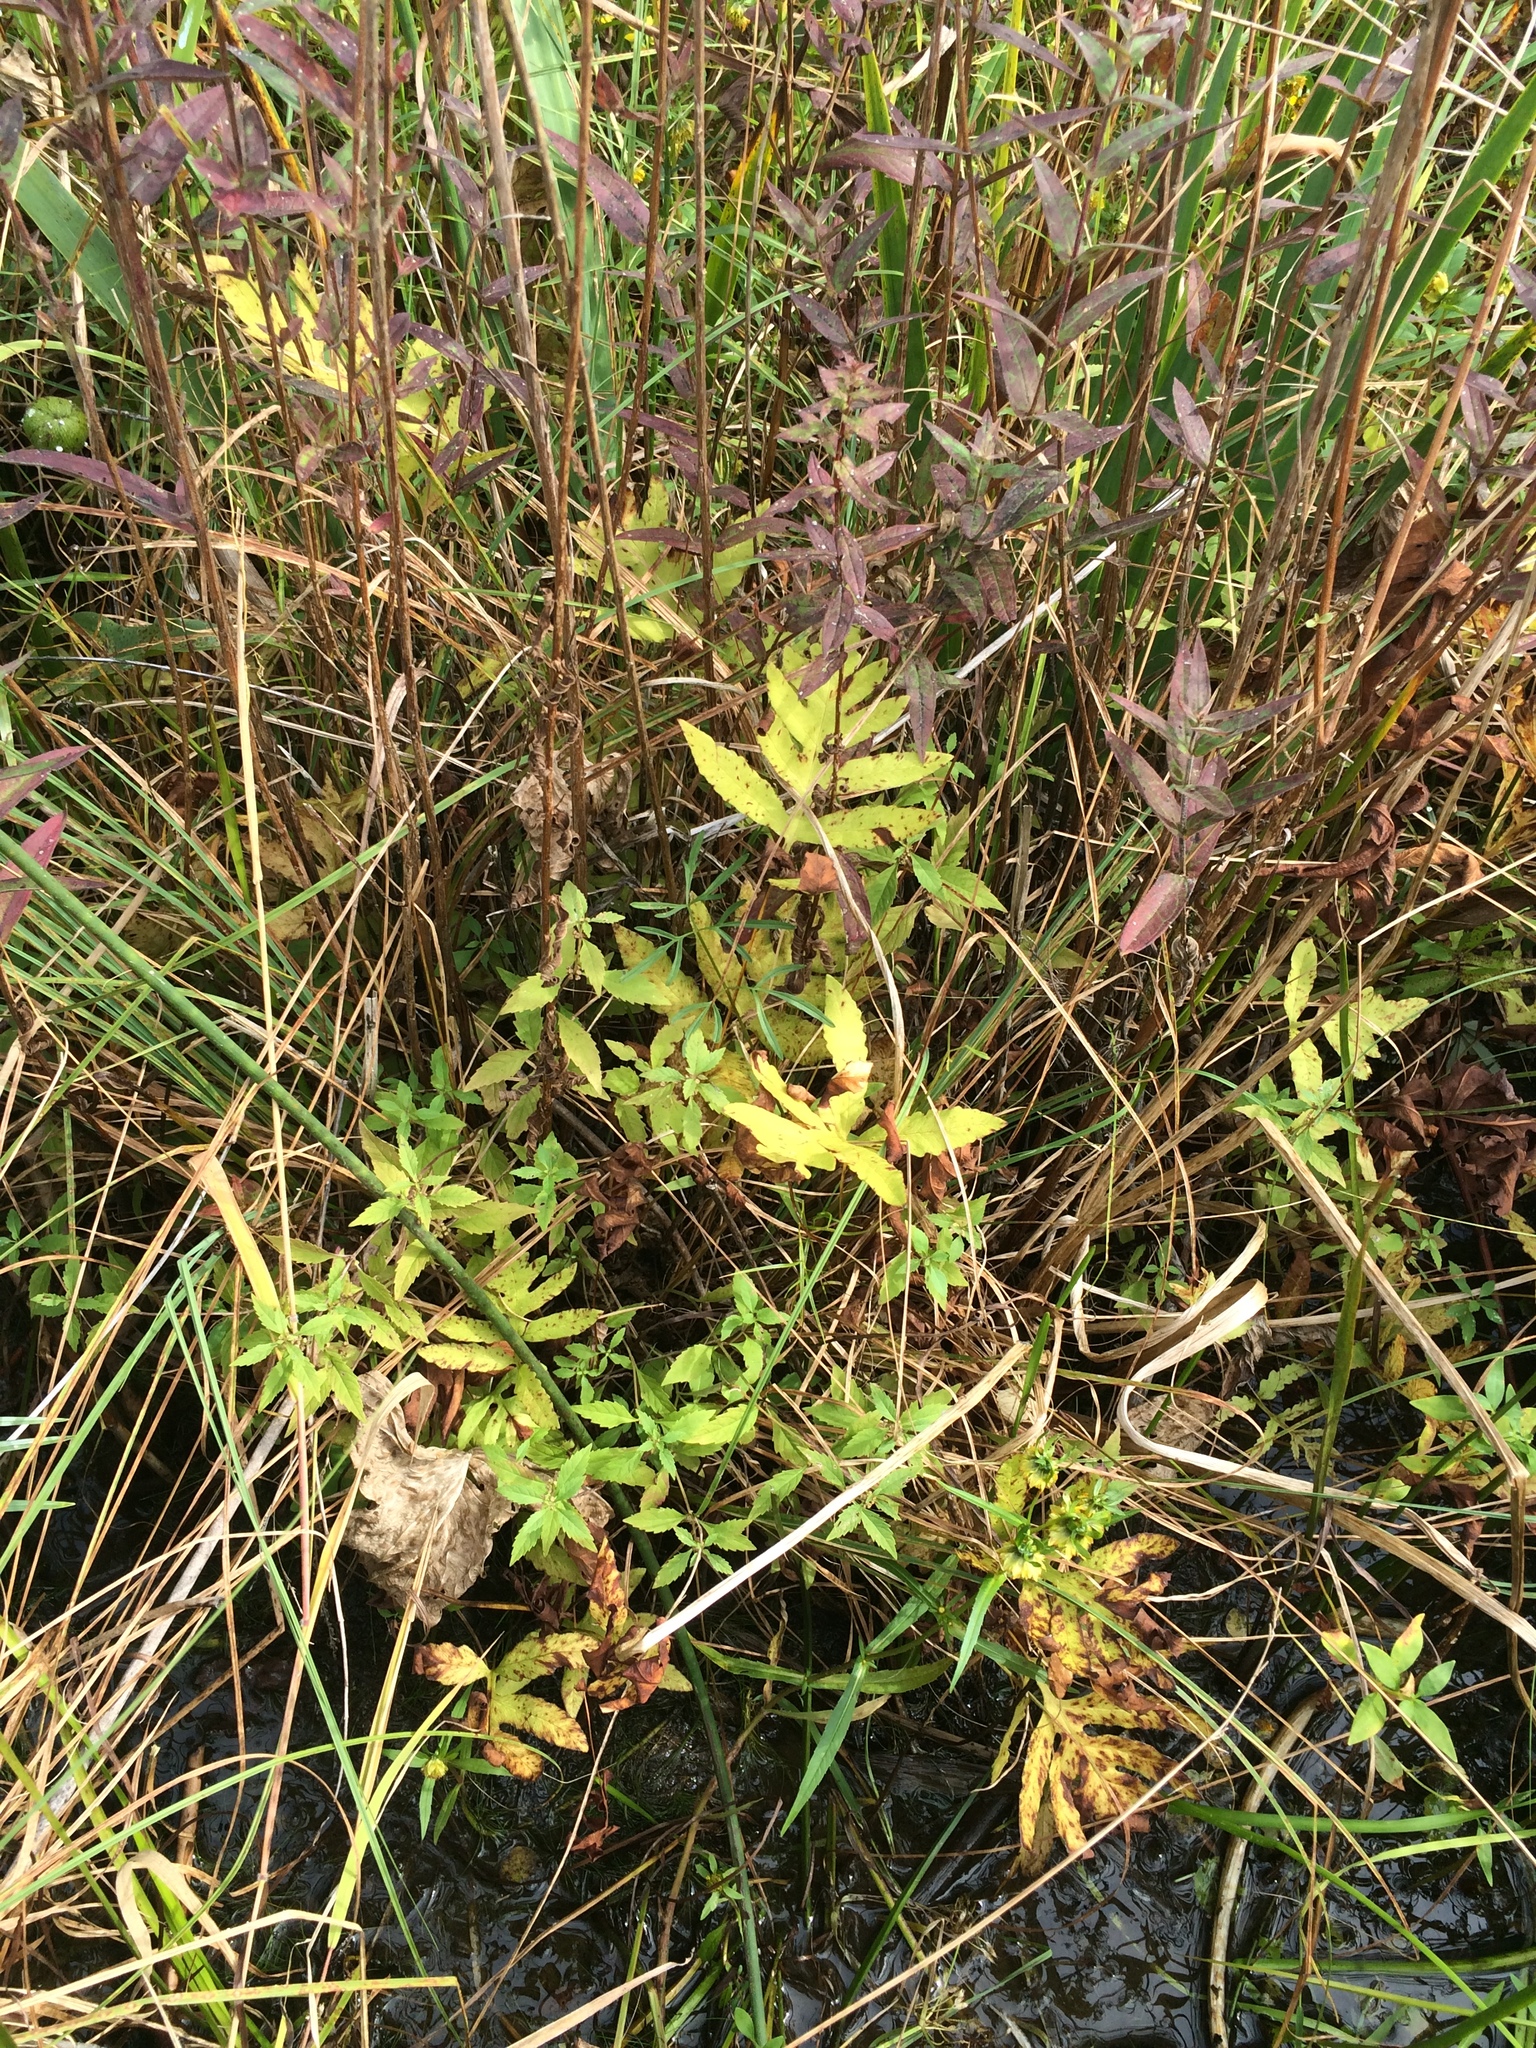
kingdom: Plantae
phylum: Tracheophyta
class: Polypodiopsida
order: Polypodiales
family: Onocleaceae
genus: Onoclea
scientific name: Onoclea sensibilis
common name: Sensitive fern
